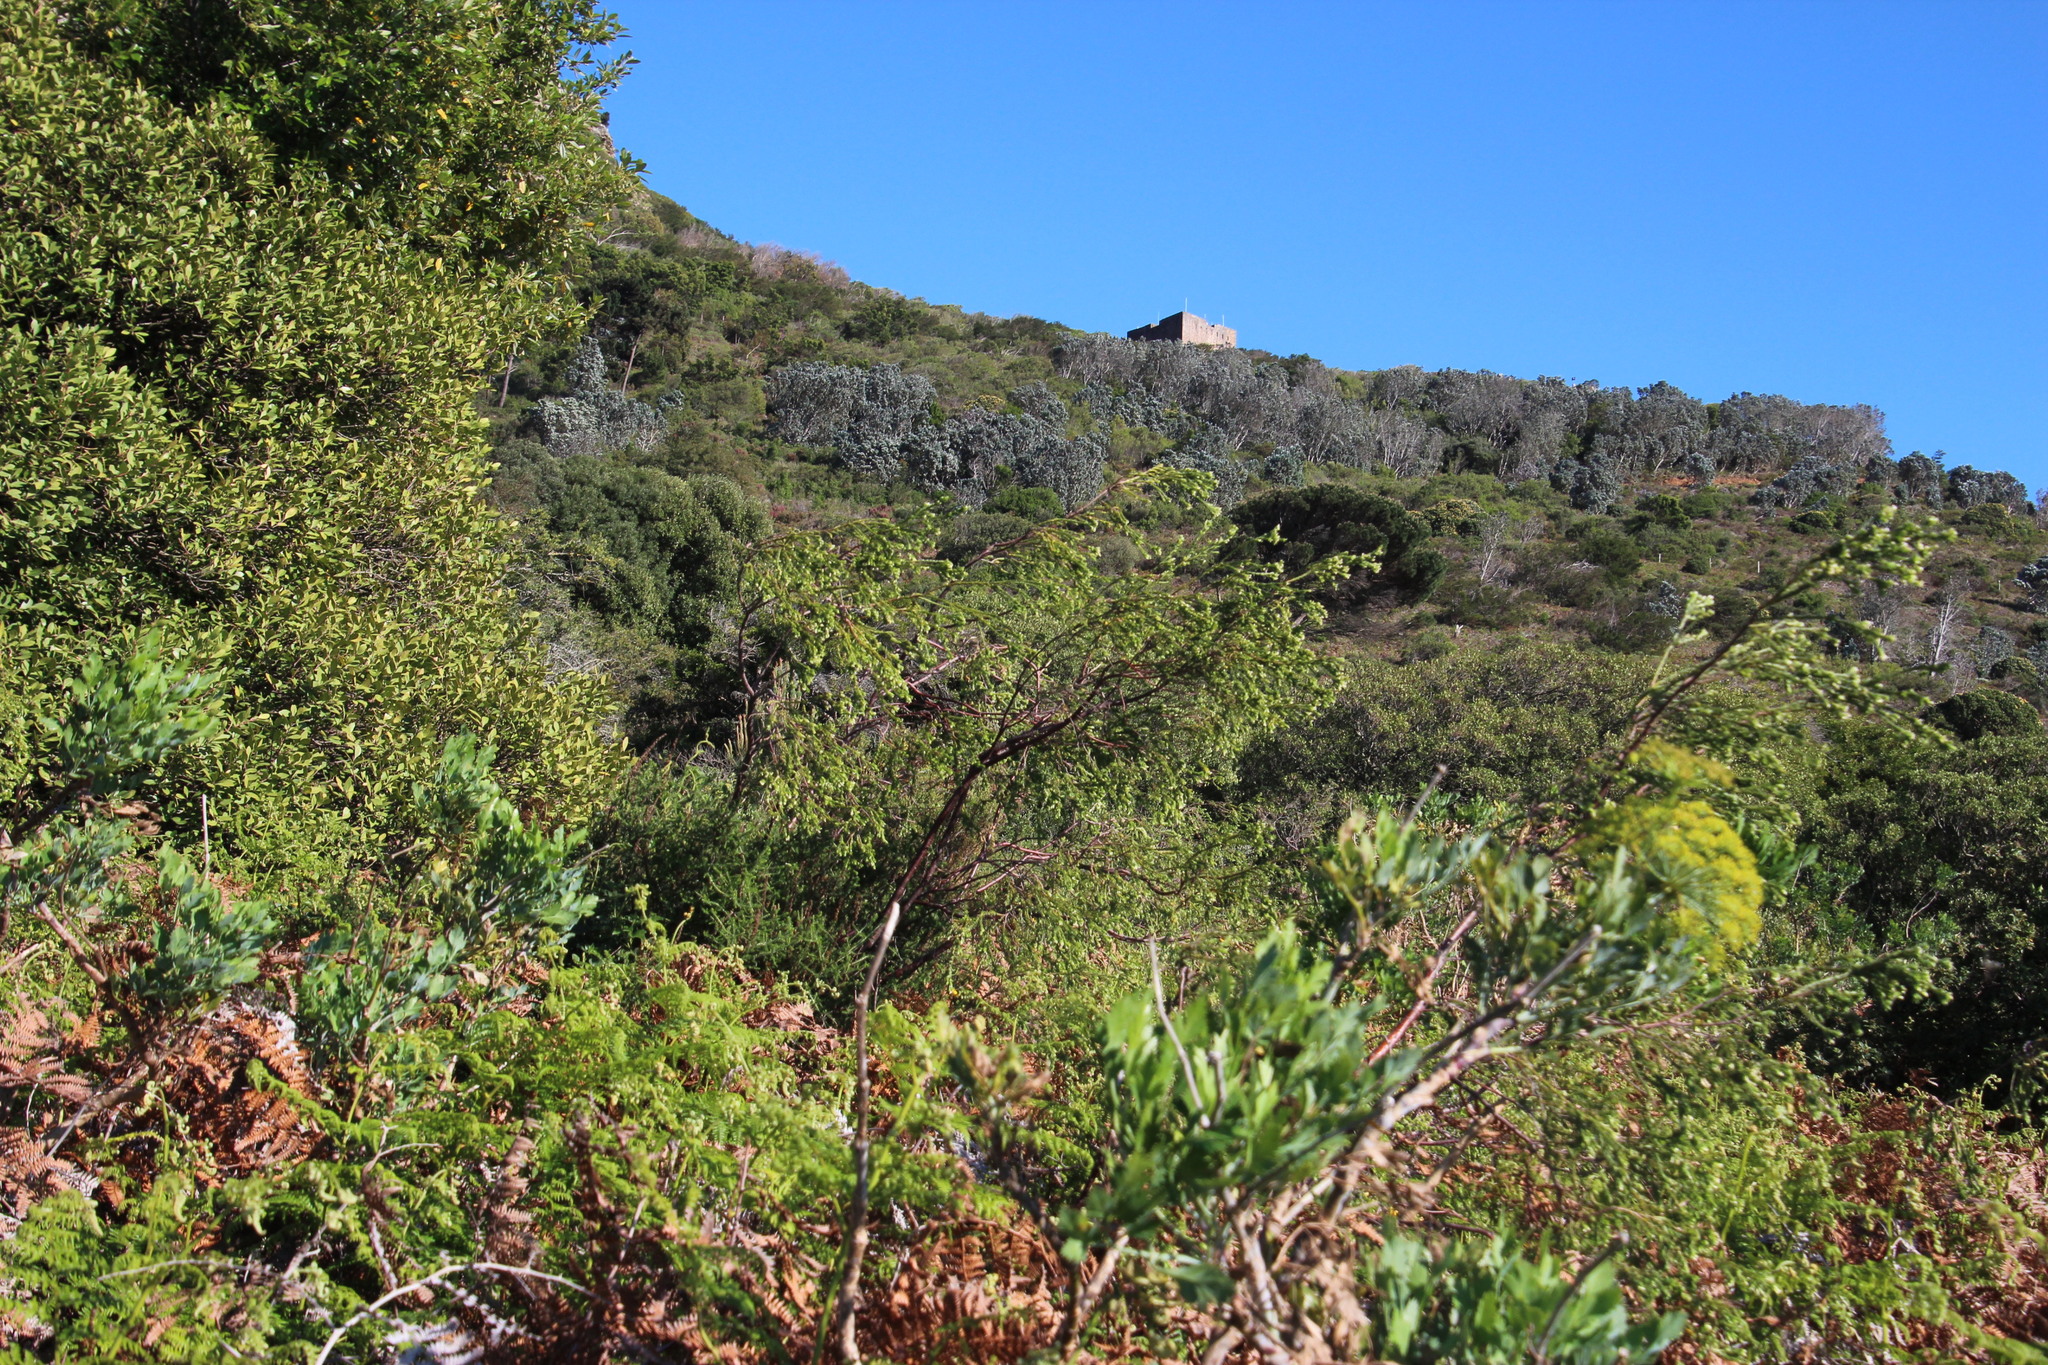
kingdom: Plantae
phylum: Tracheophyta
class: Magnoliopsida
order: Malvales
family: Thymelaeaceae
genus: Gnidia
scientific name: Gnidia sericea
